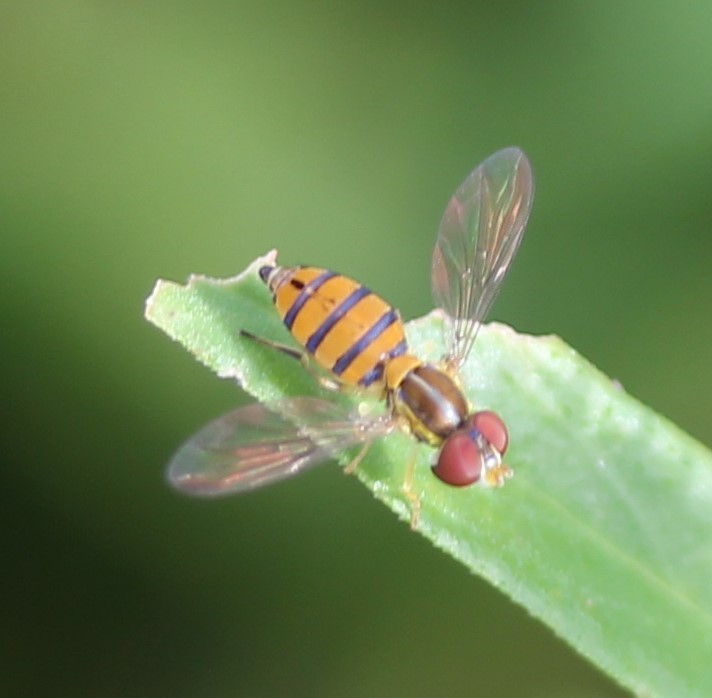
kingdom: Animalia
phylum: Arthropoda
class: Insecta
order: Diptera
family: Syrphidae
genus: Toxomerus
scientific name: Toxomerus corbis
